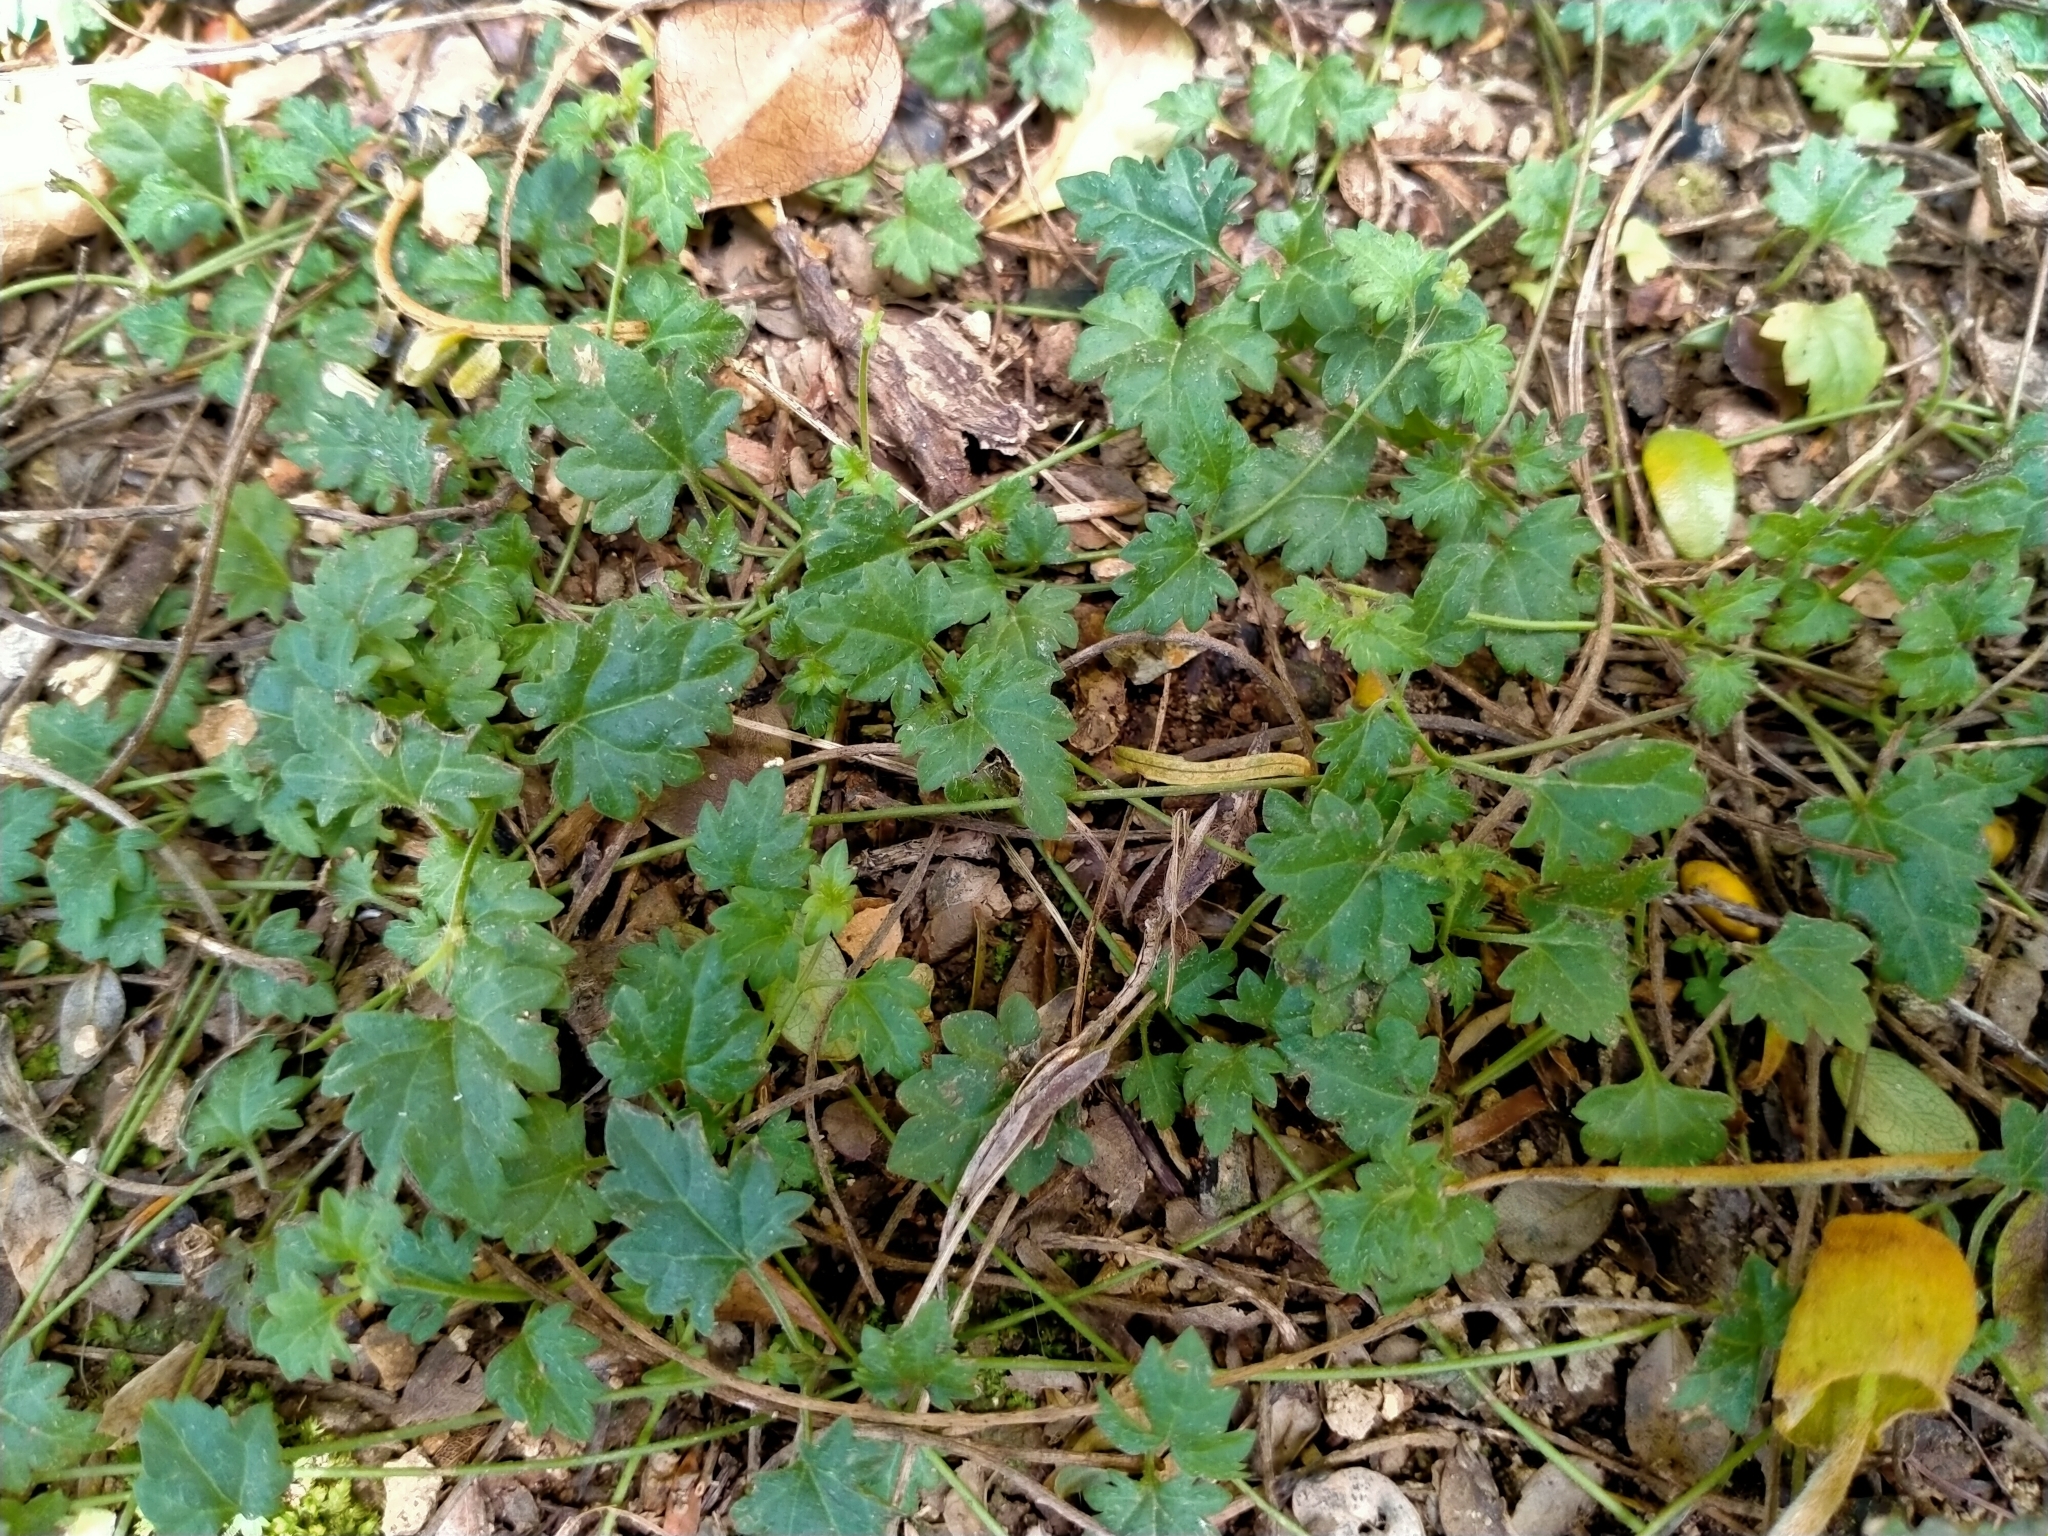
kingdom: Plantae
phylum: Tracheophyta
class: Magnoliopsida
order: Lamiales
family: Plantaginaceae
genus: Veronica
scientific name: Veronica plebeia
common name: Speedwell
